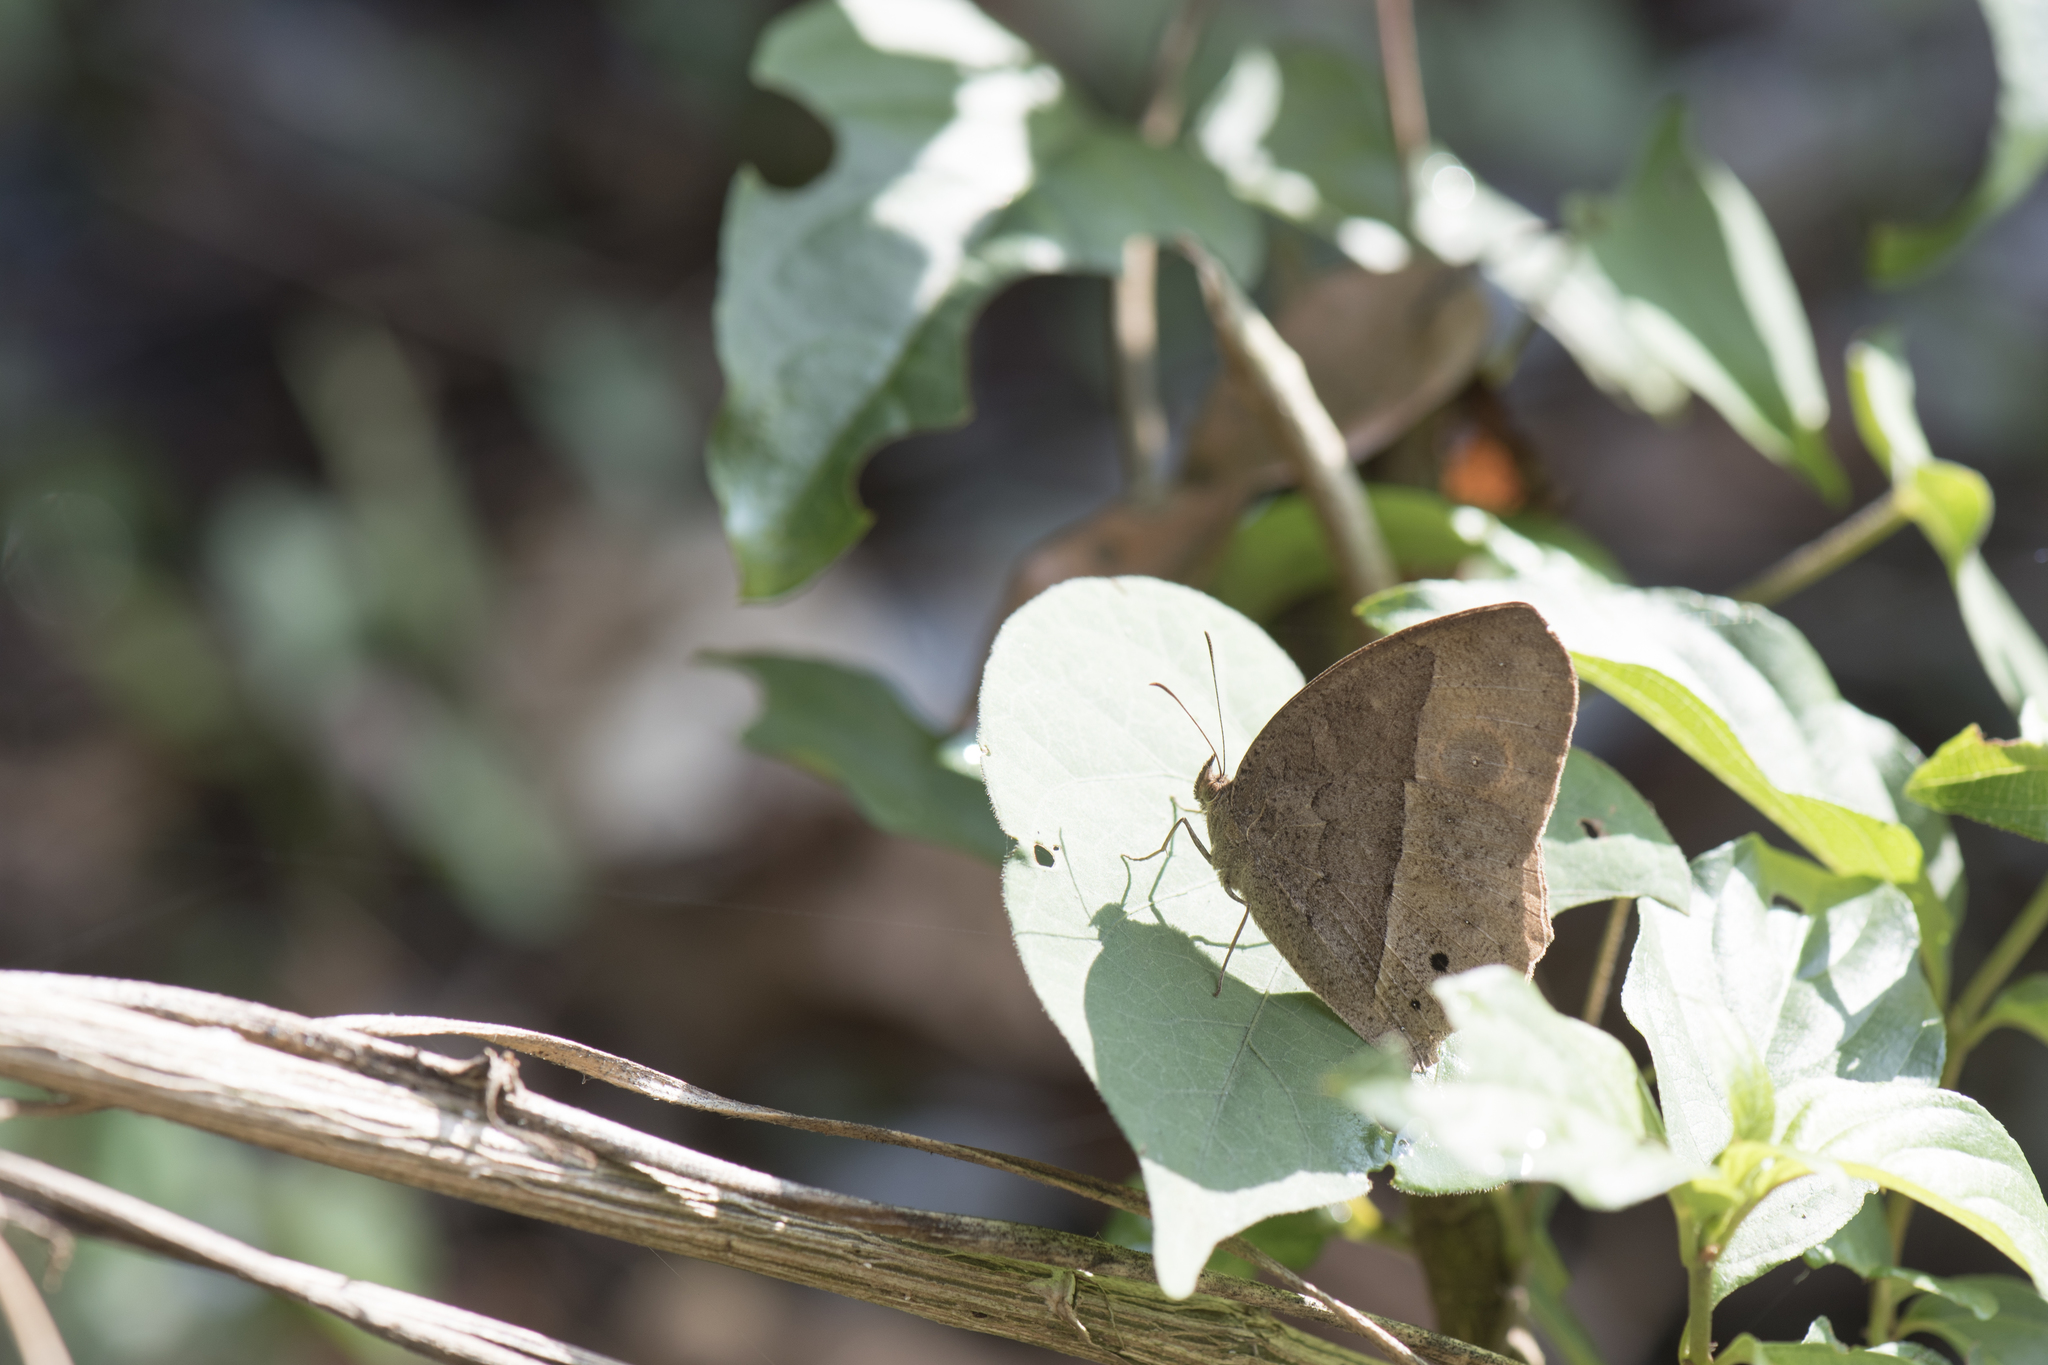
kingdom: Animalia
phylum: Arthropoda
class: Insecta
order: Lepidoptera
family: Nymphalidae
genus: Mycalesis
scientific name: Mycalesis horsfieldii
